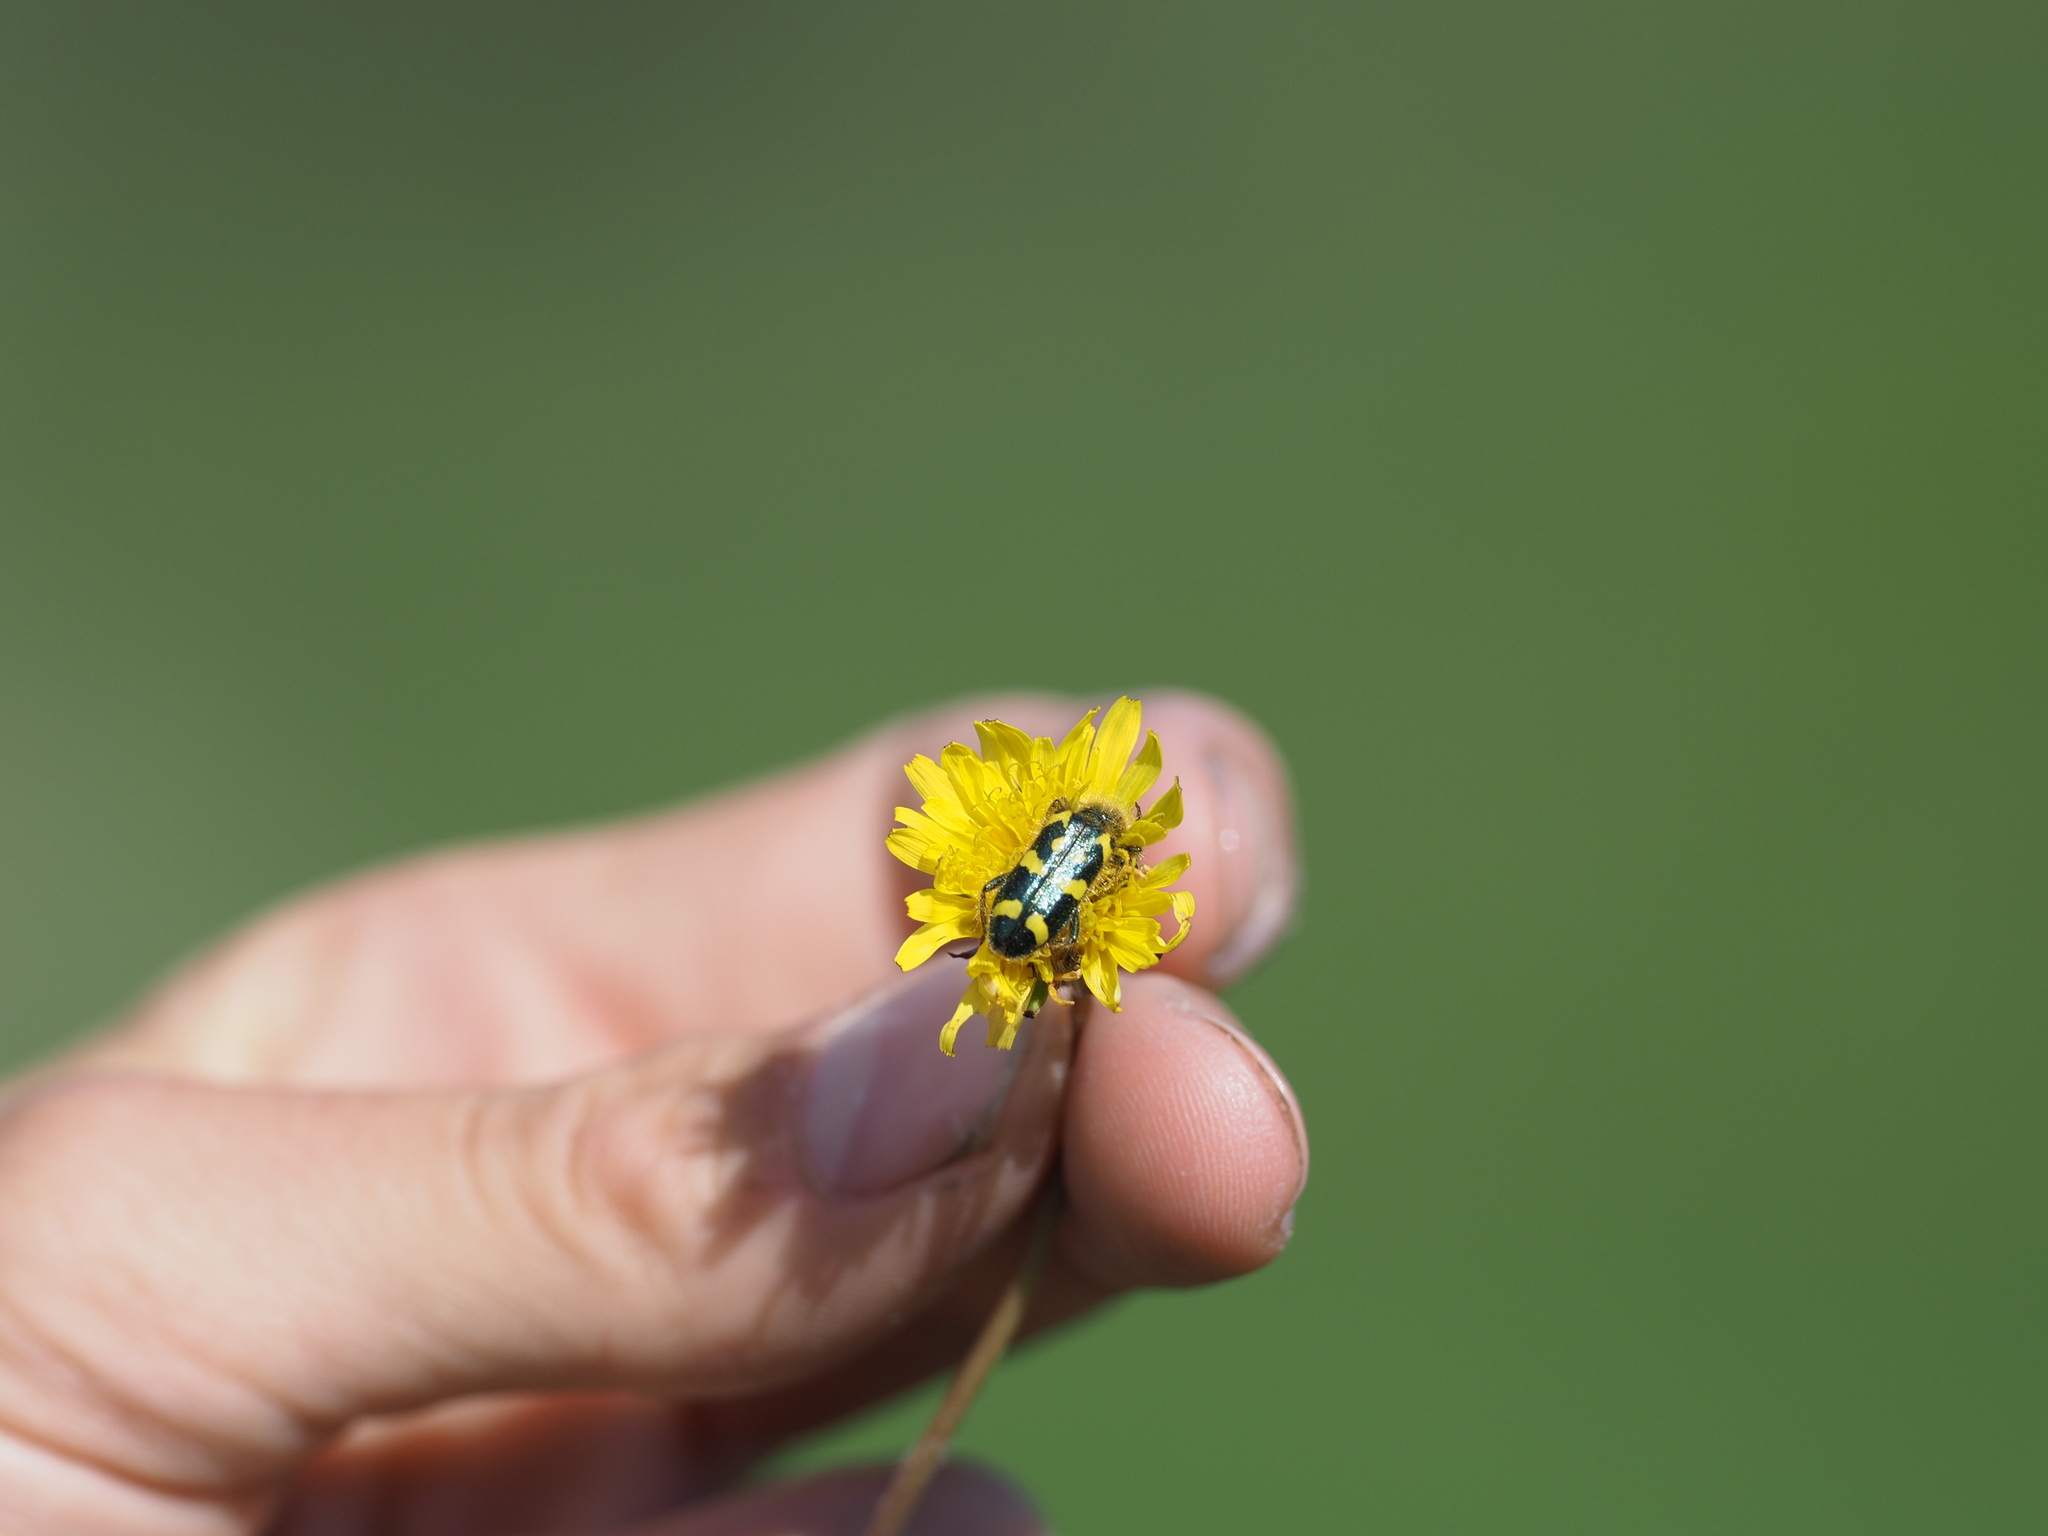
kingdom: Animalia
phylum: Arthropoda
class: Insecta
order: Coleoptera
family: Cleridae
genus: Trichodes
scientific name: Trichodes ornatus
